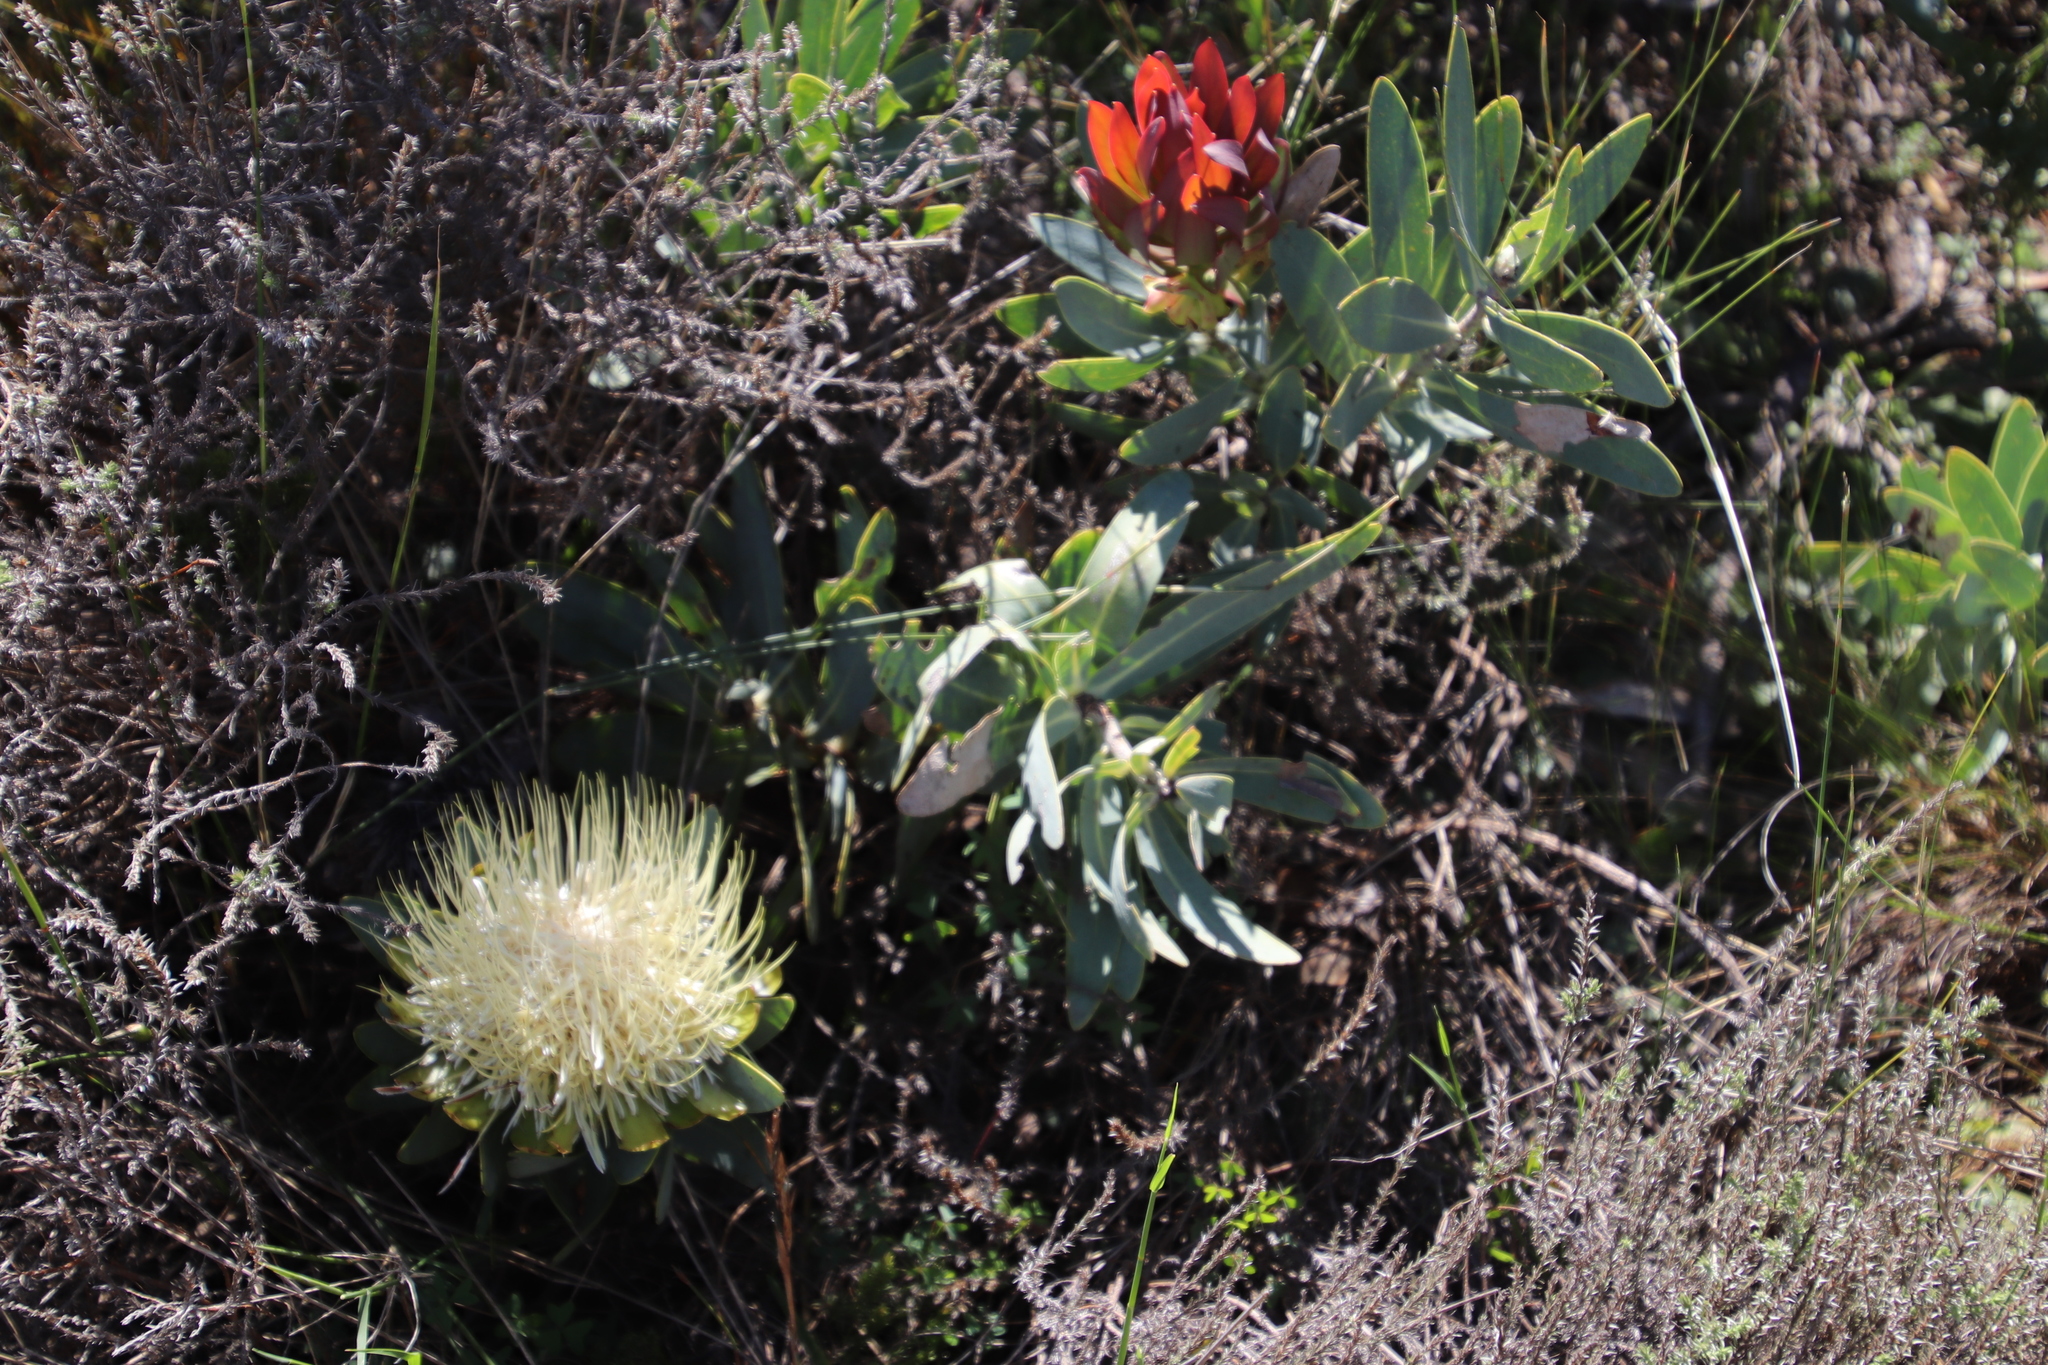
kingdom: Plantae
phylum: Tracheophyta
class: Magnoliopsida
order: Proteales
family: Proteaceae
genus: Protea
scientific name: Protea nitida
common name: Tree protea
